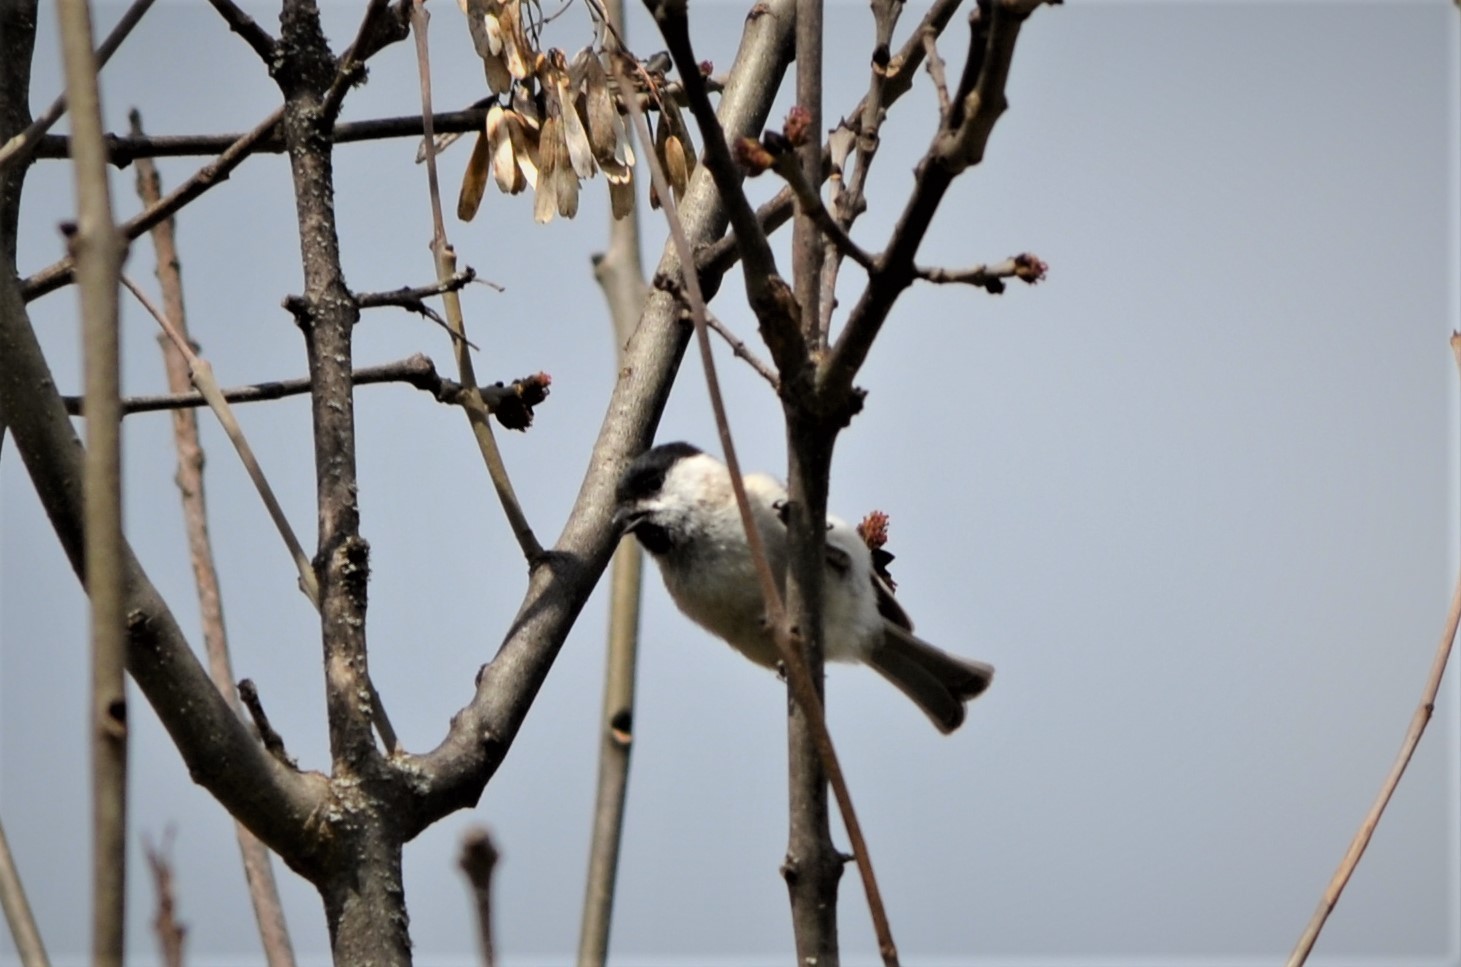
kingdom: Animalia
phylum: Chordata
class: Aves
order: Passeriformes
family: Paridae
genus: Poecile
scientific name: Poecile palustris
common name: Marsh tit
